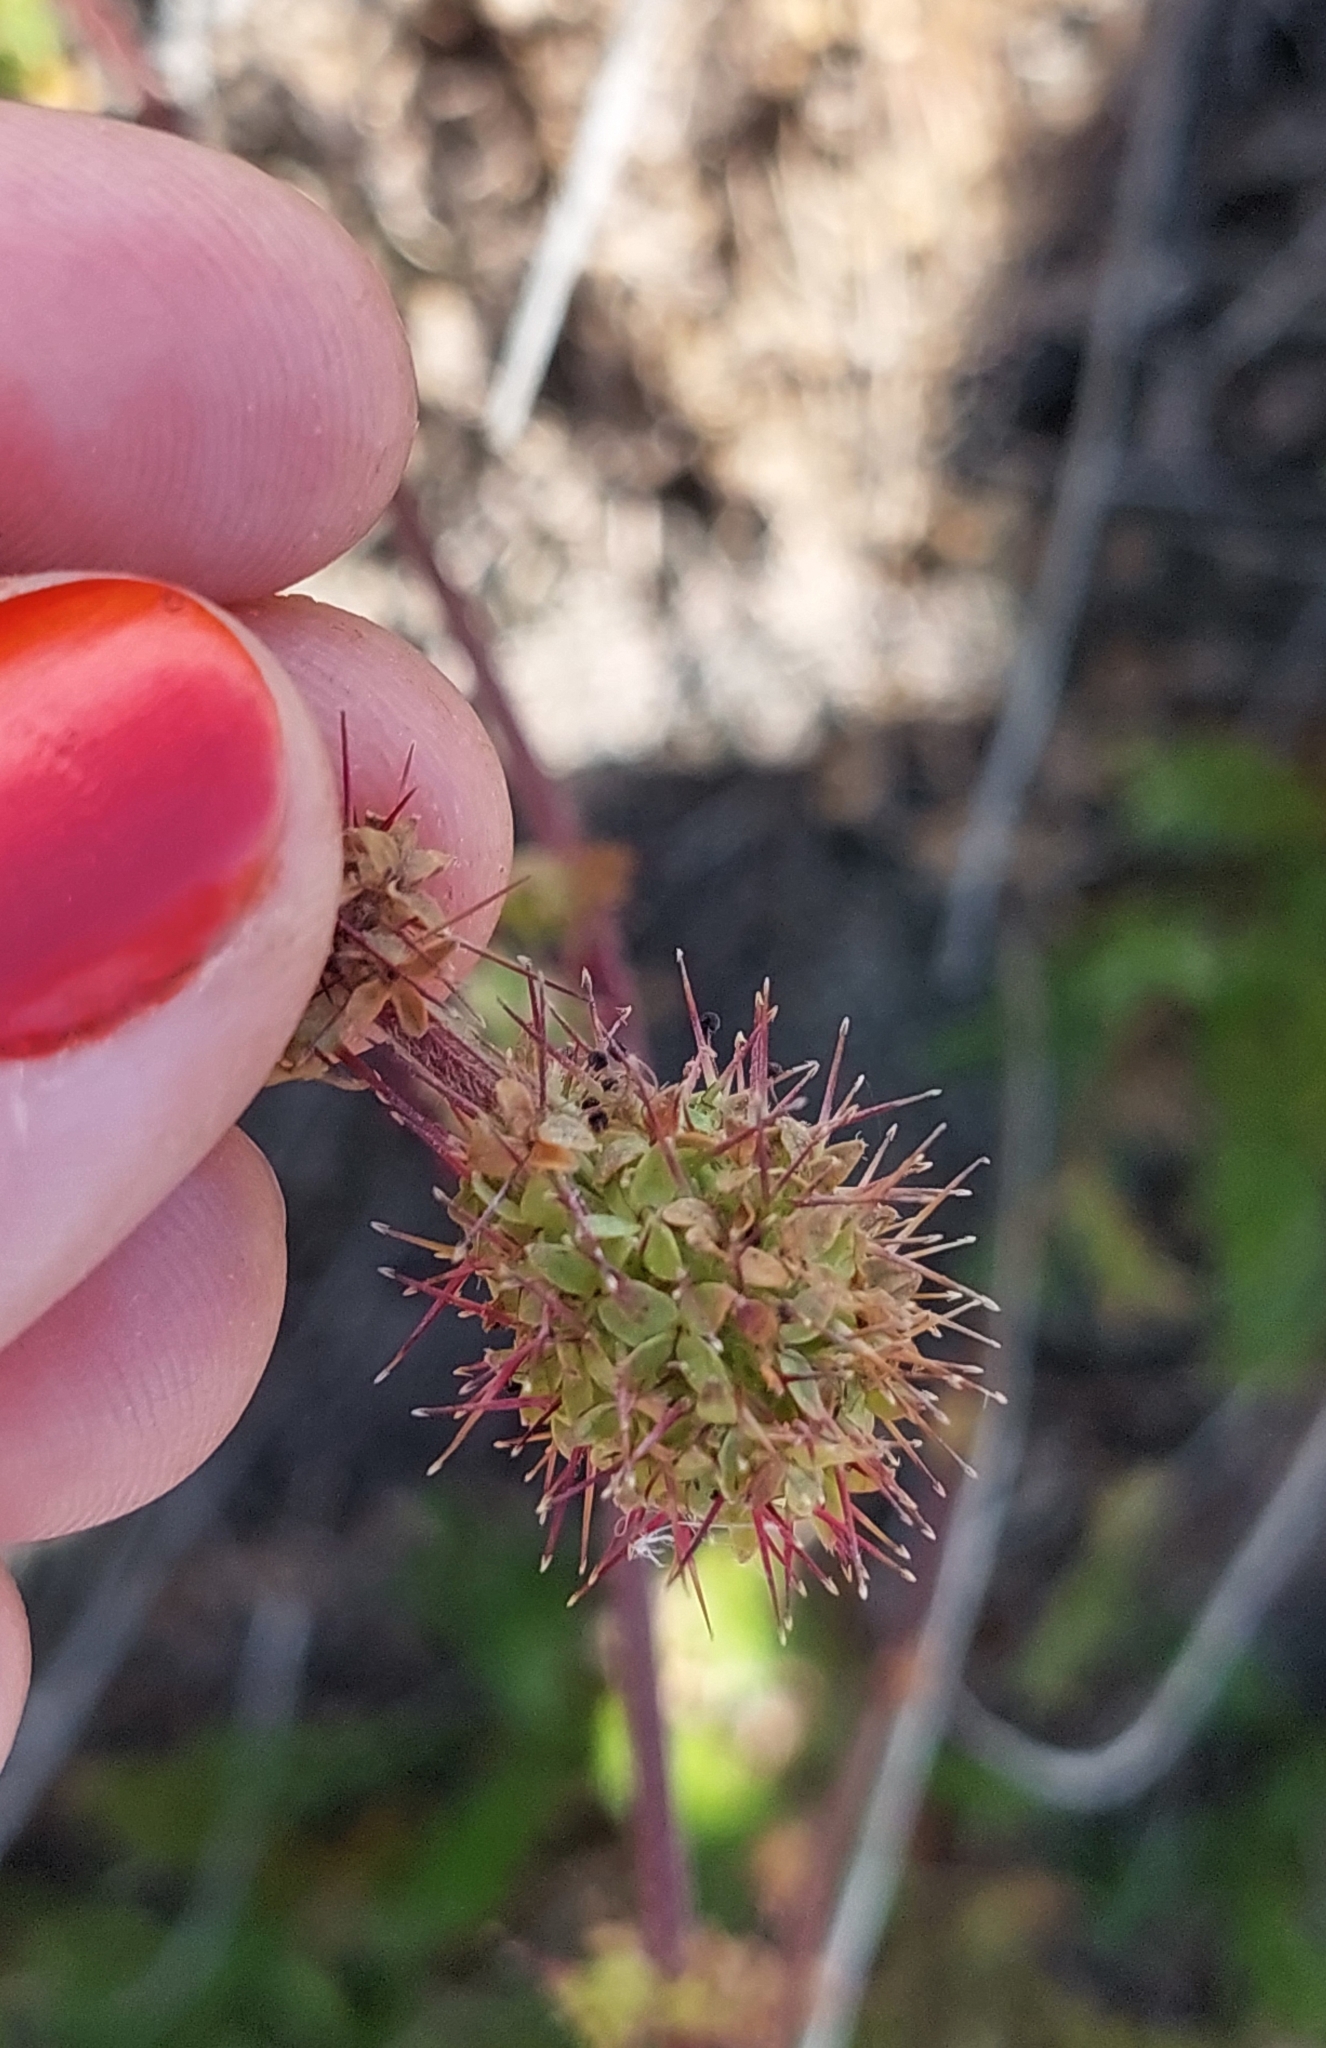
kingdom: Plantae
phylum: Tracheophyta
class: Magnoliopsida
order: Rosales
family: Rosaceae
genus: Acaena
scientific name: Acaena agnipila
